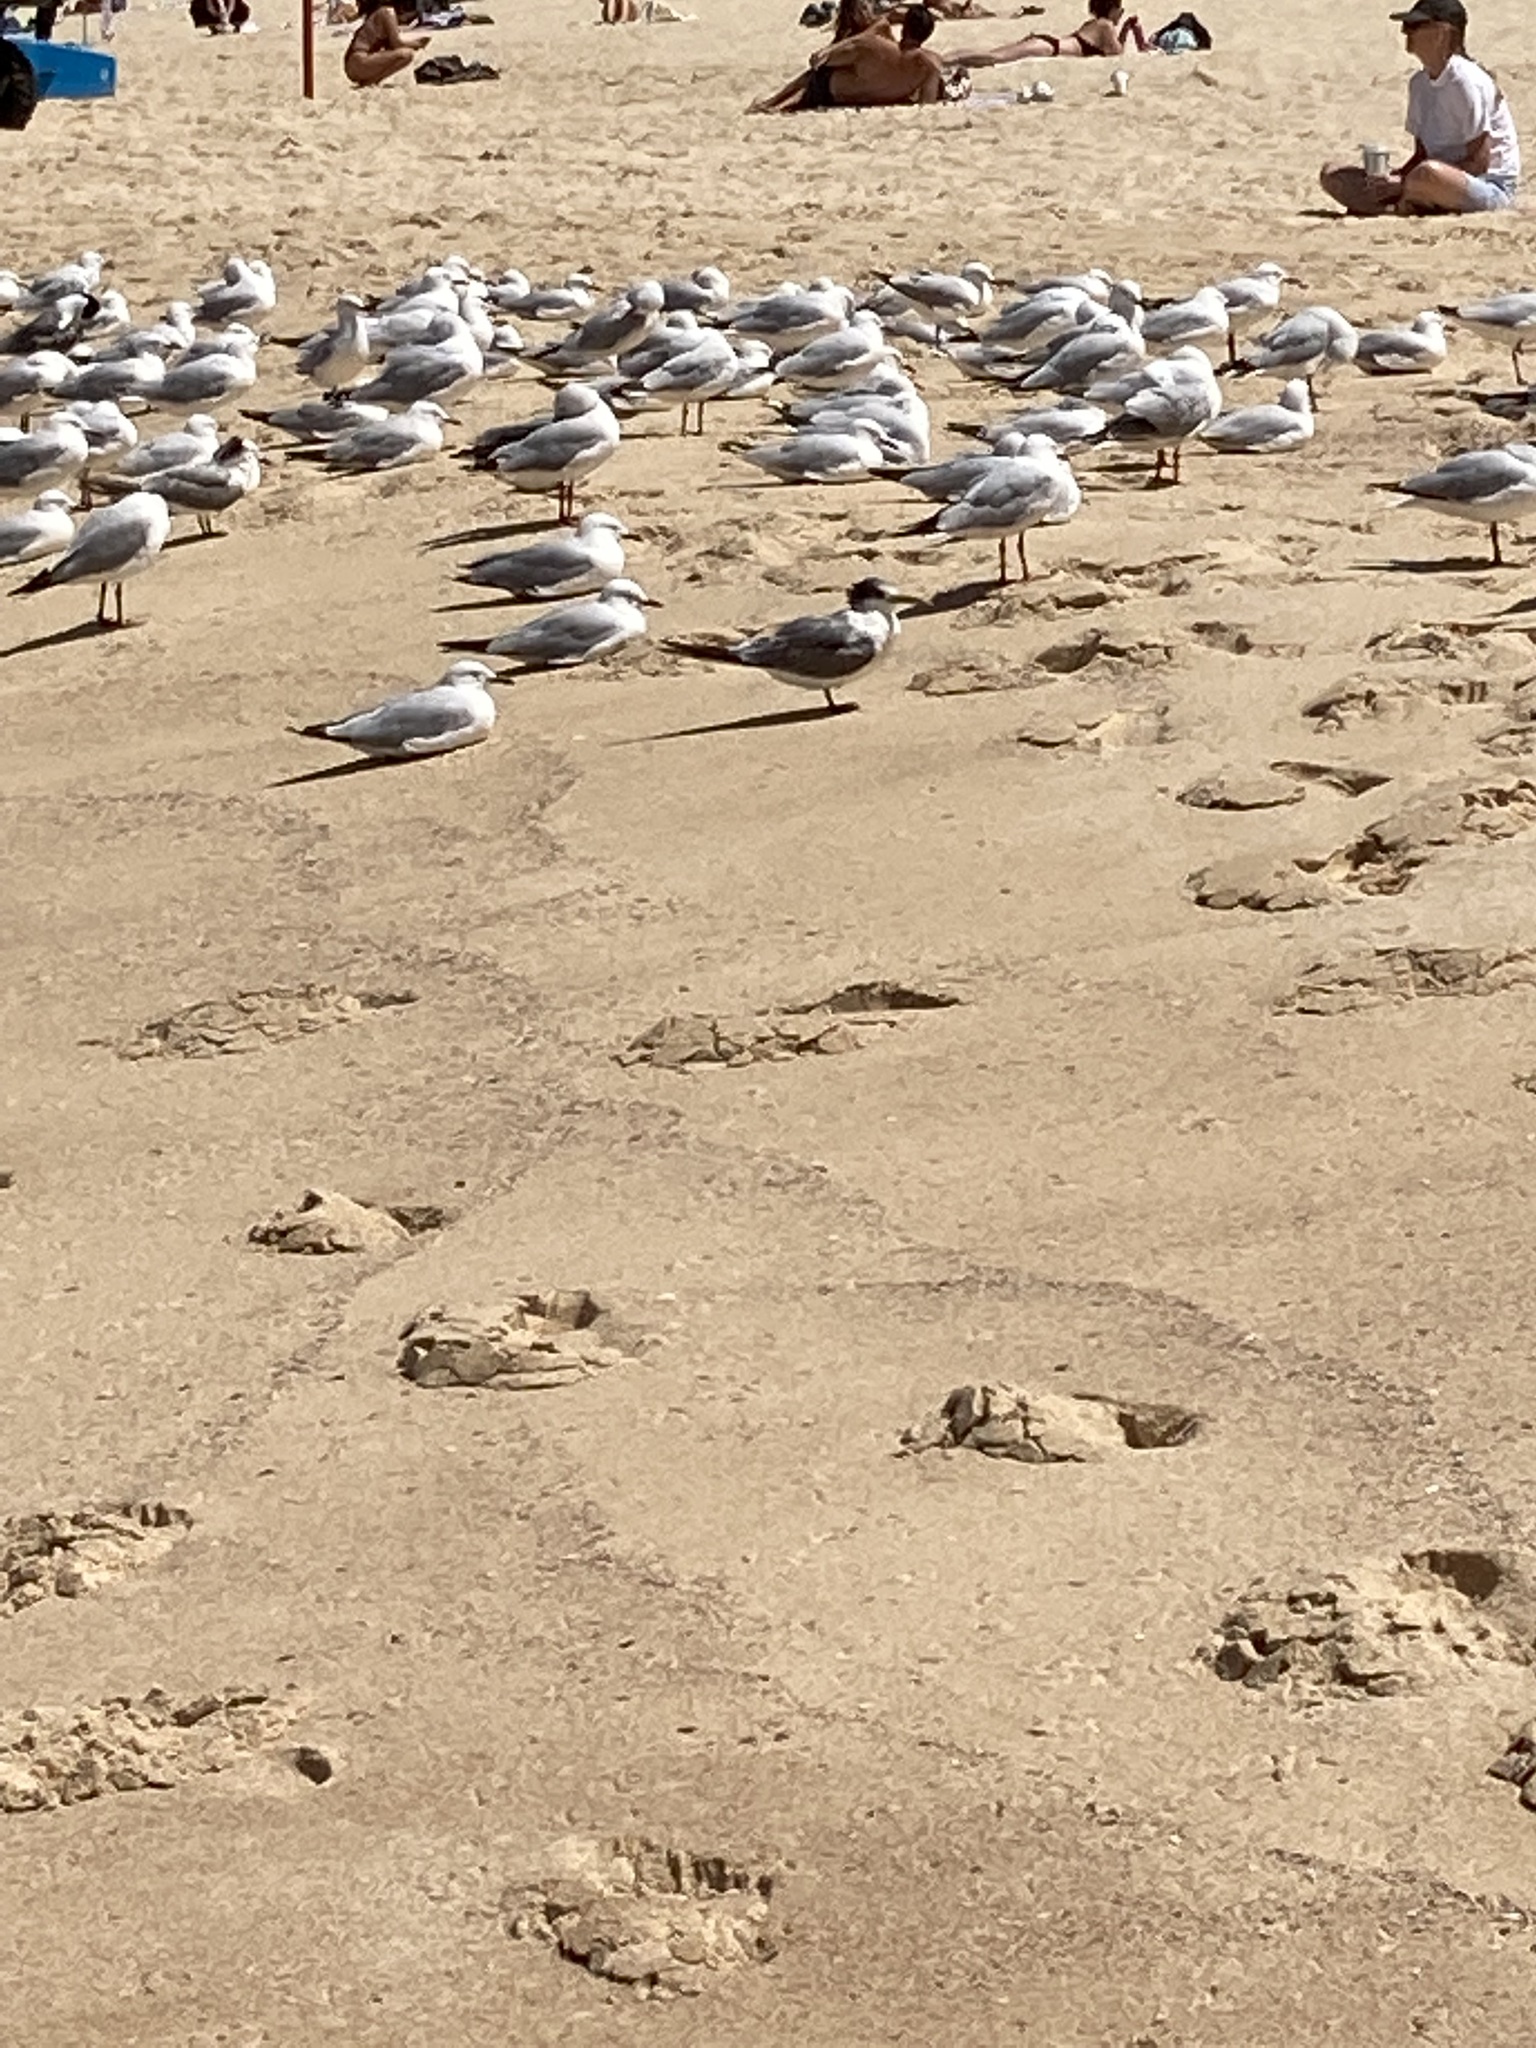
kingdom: Animalia
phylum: Chordata
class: Aves
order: Charadriiformes
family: Laridae
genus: Thalasseus
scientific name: Thalasseus bergii
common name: Greater crested tern
